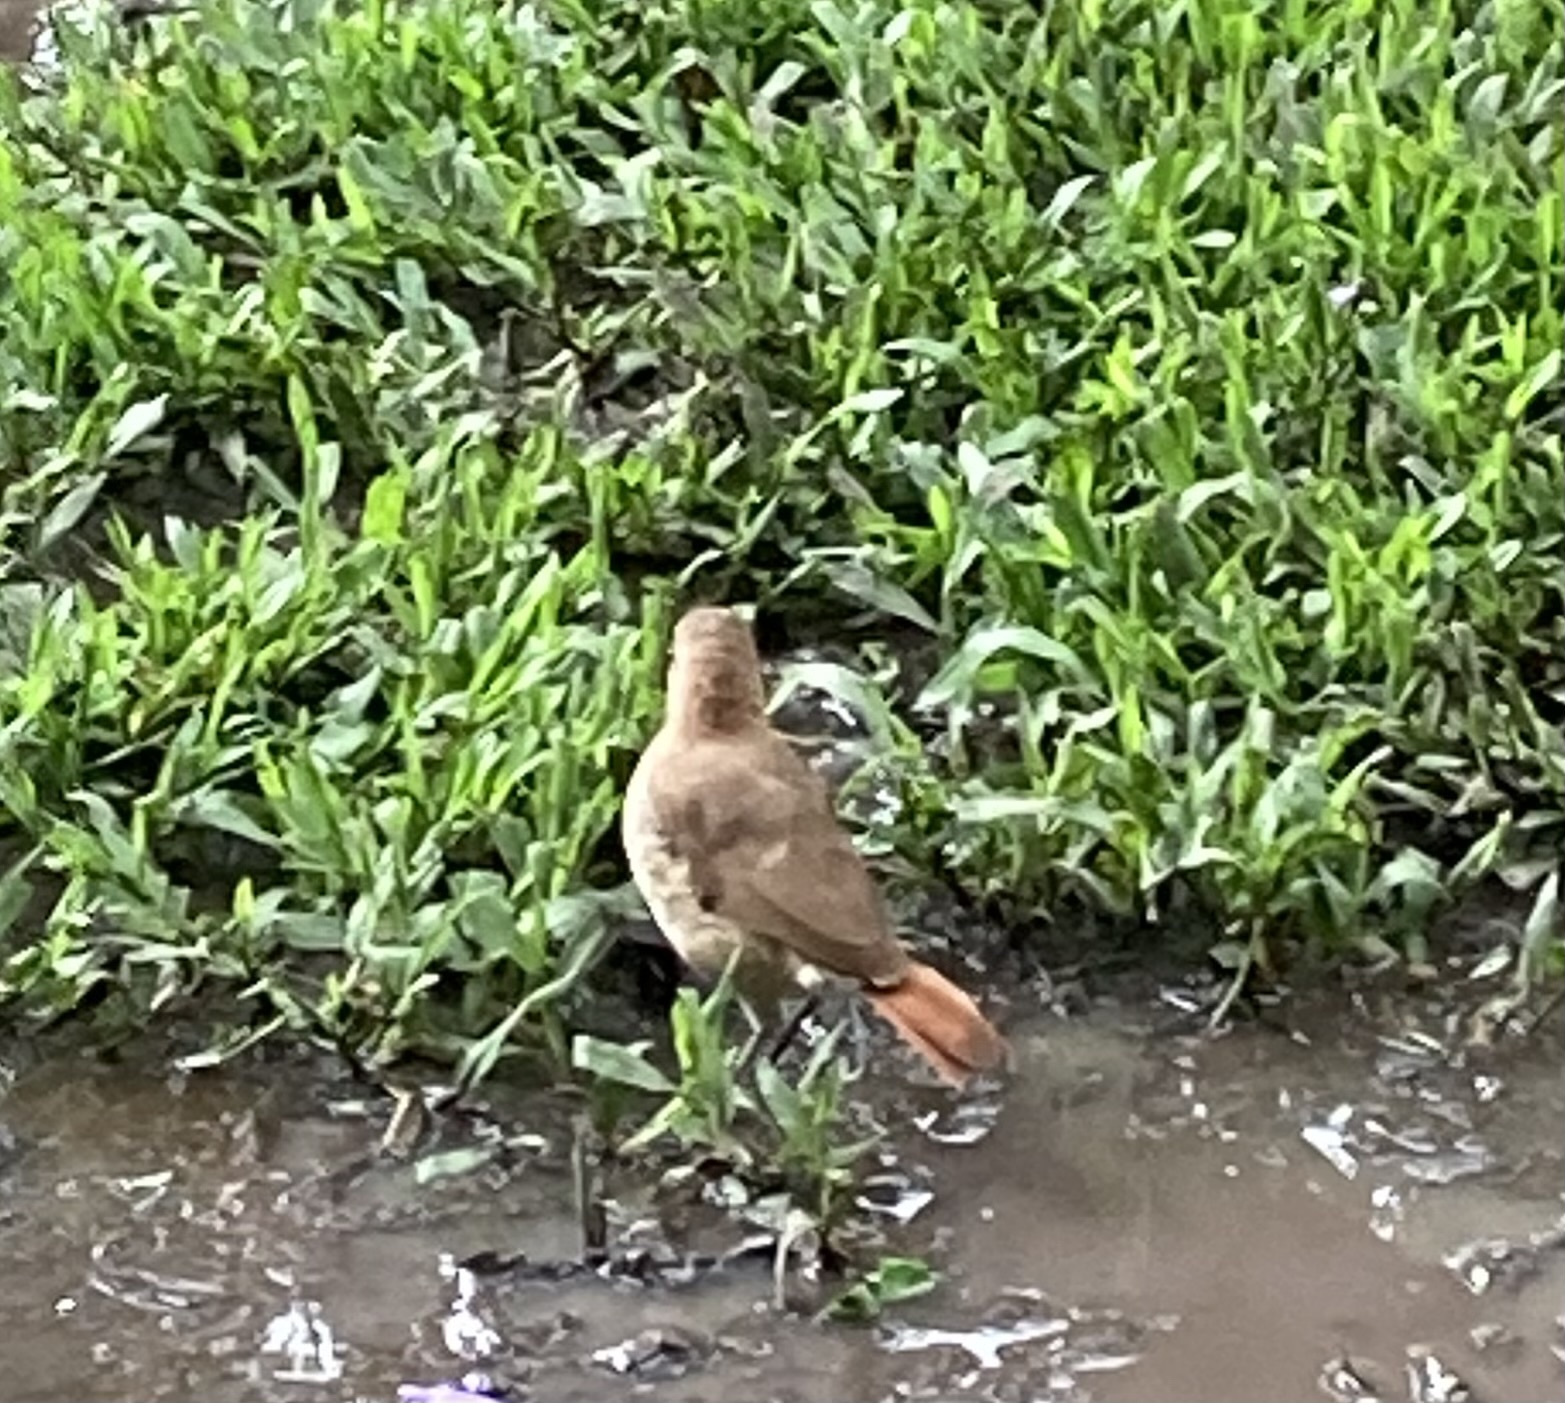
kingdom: Animalia
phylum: Chordata
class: Aves
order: Passeriformes
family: Furnariidae
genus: Furnarius
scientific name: Furnarius rufus
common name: Rufous hornero
